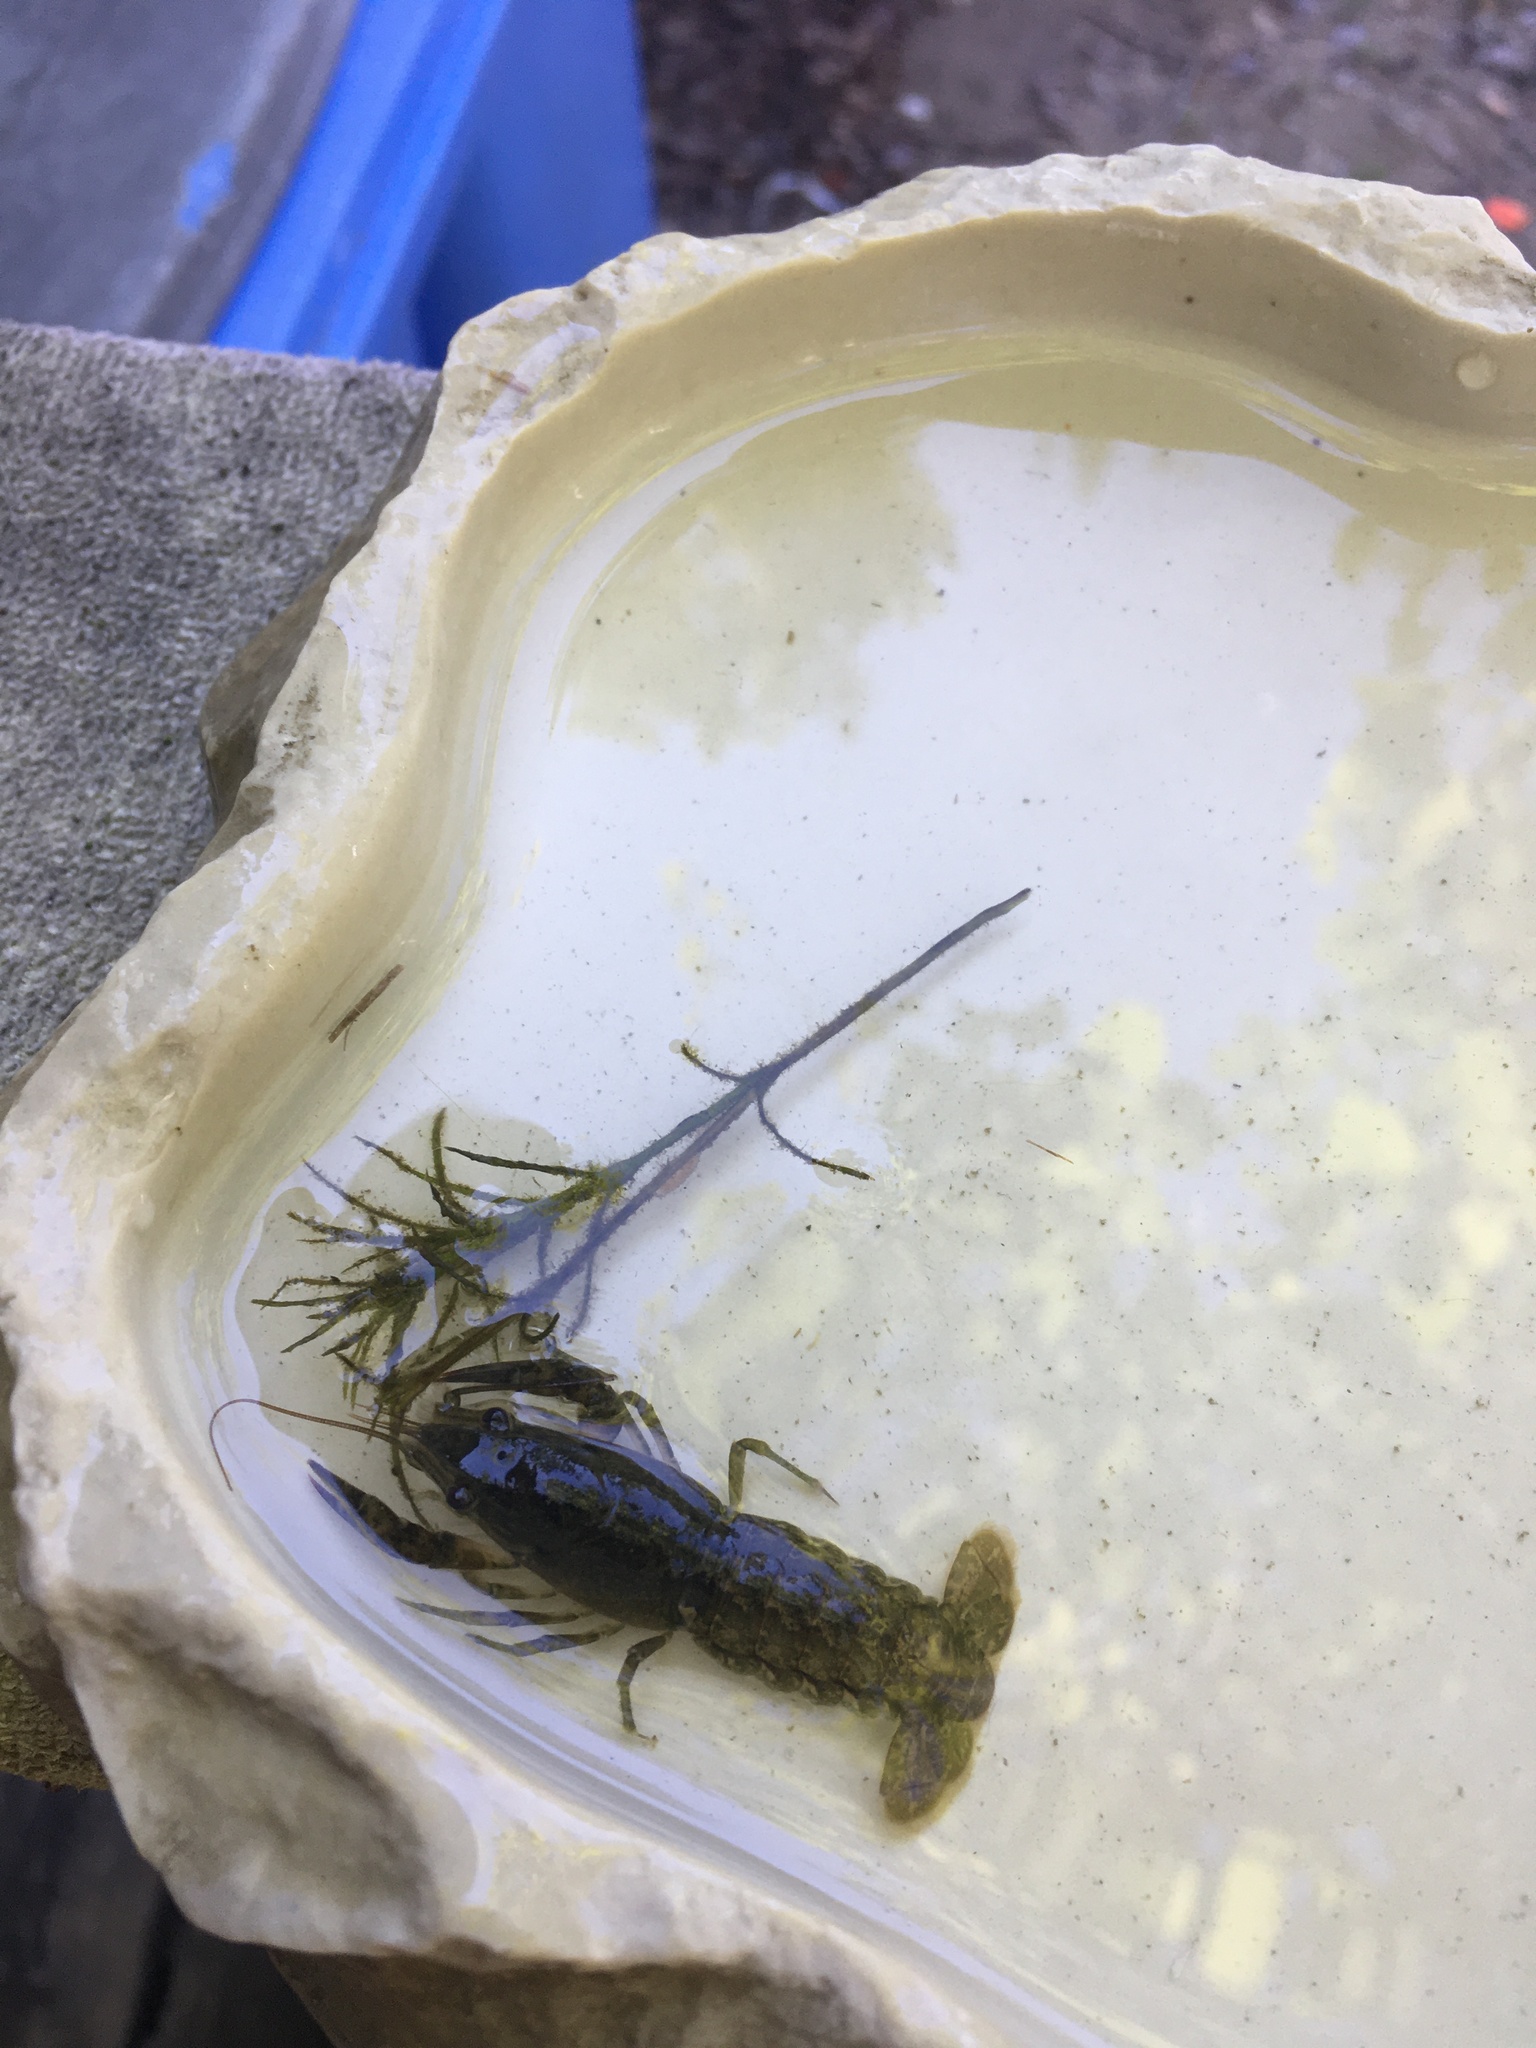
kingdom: Animalia
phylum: Arthropoda
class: Malacostraca
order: Decapoda
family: Cambaridae
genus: Faxonius
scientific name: Faxonius immunis
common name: Calico crayfish
